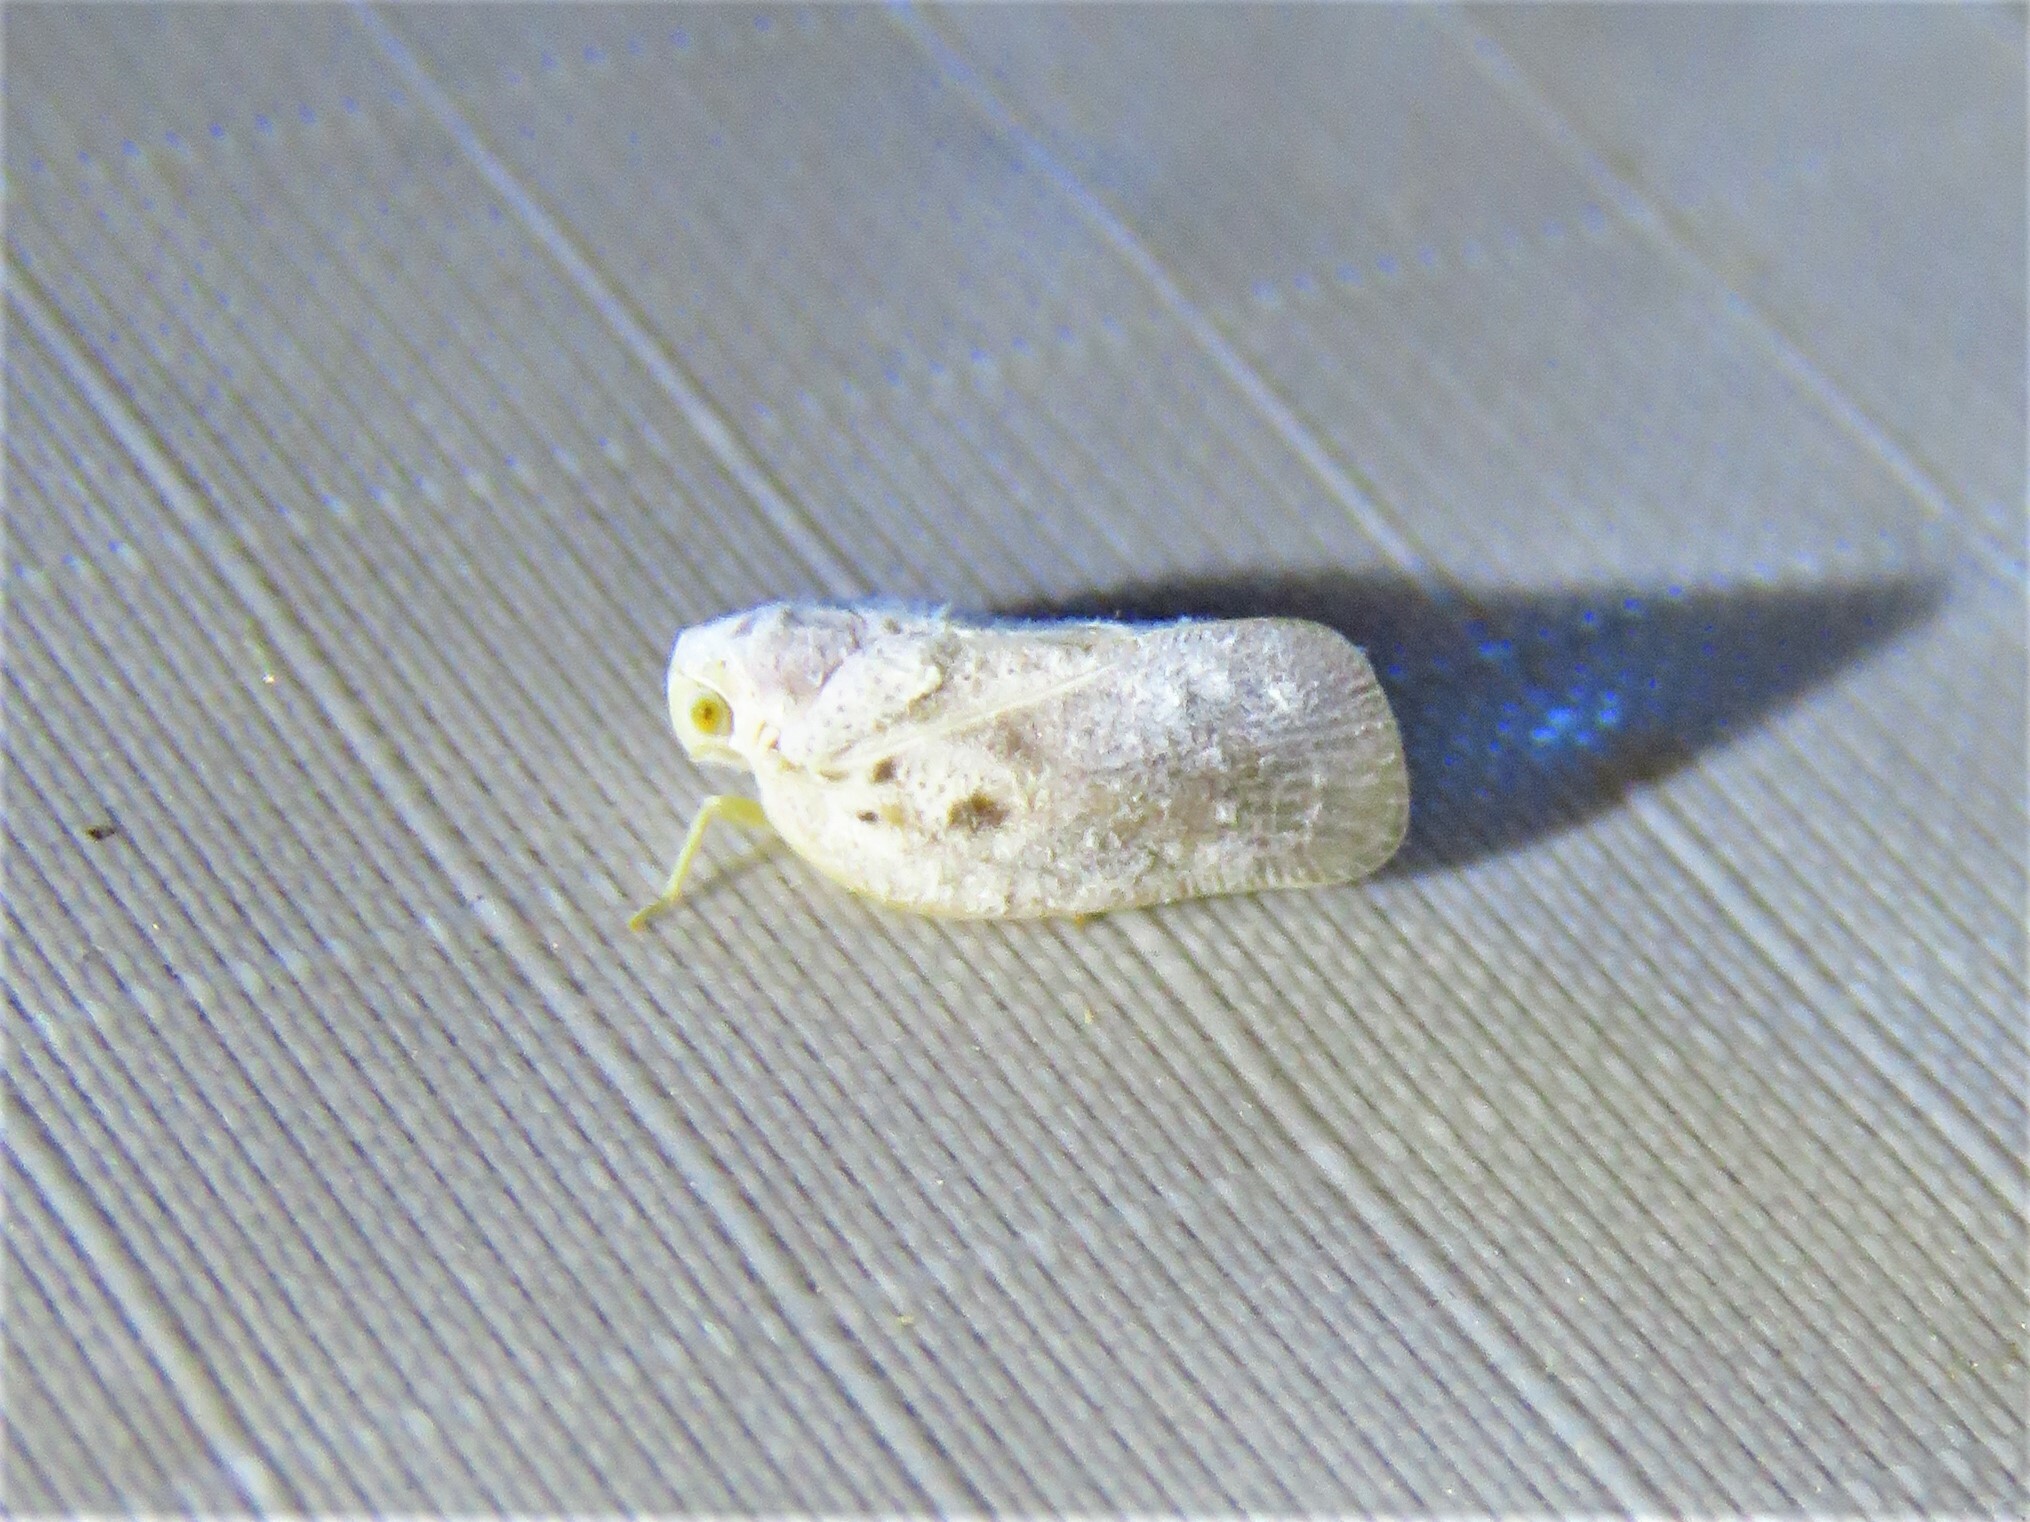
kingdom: Animalia
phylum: Arthropoda
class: Insecta
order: Hemiptera
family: Flatidae
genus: Metcalfa
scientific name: Metcalfa pruinosa
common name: Citrus flatid planthopper
